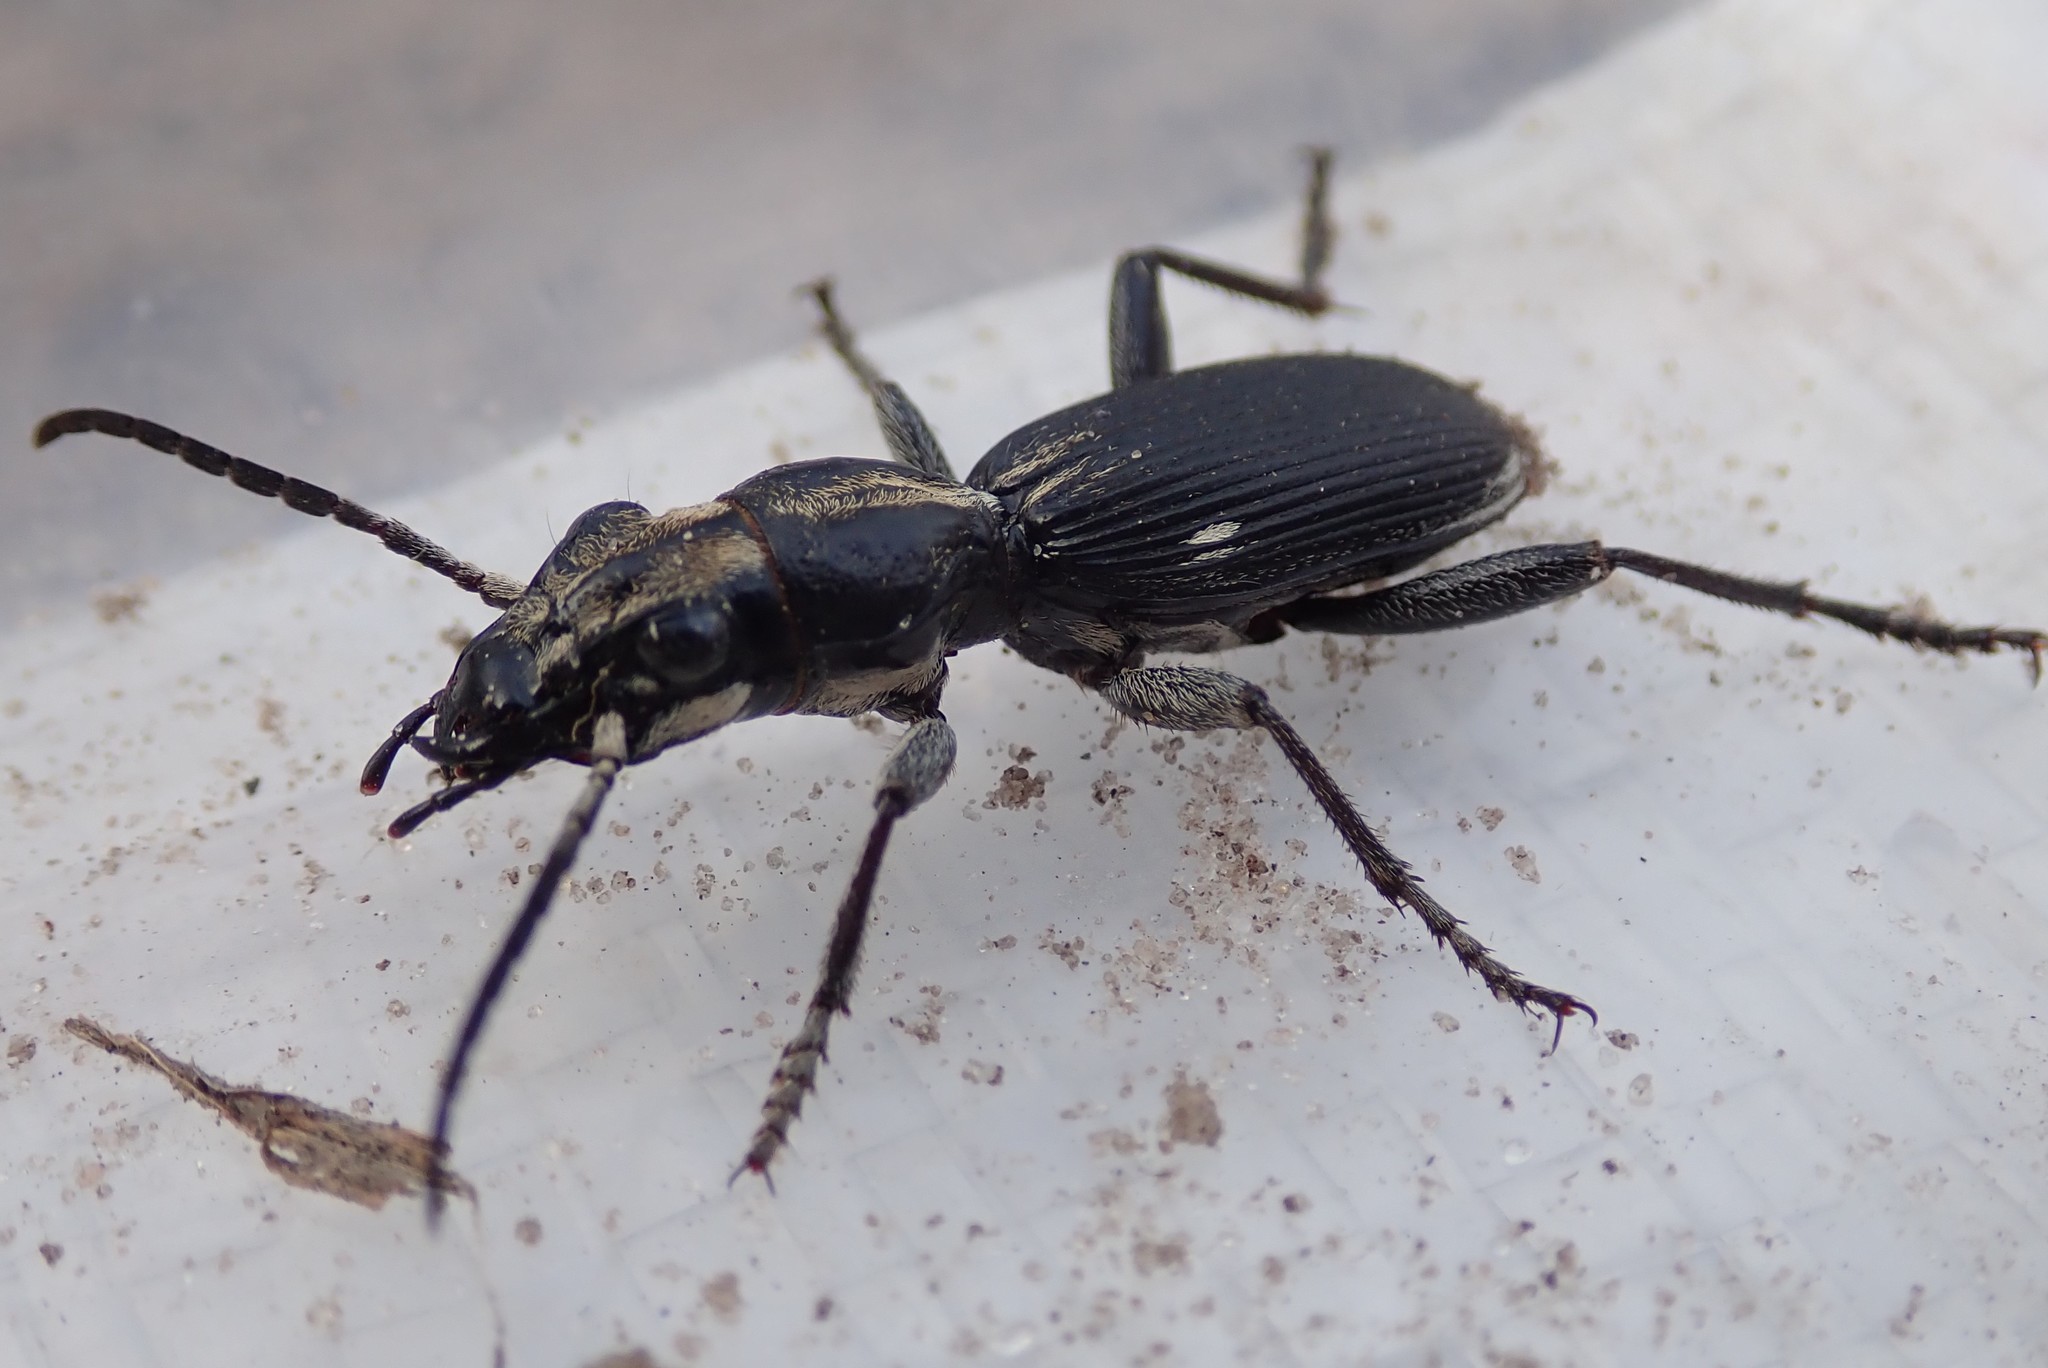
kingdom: Animalia
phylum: Arthropoda
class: Insecta
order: Coleoptera
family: Carabidae
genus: Anthia
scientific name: Anthia limbata
